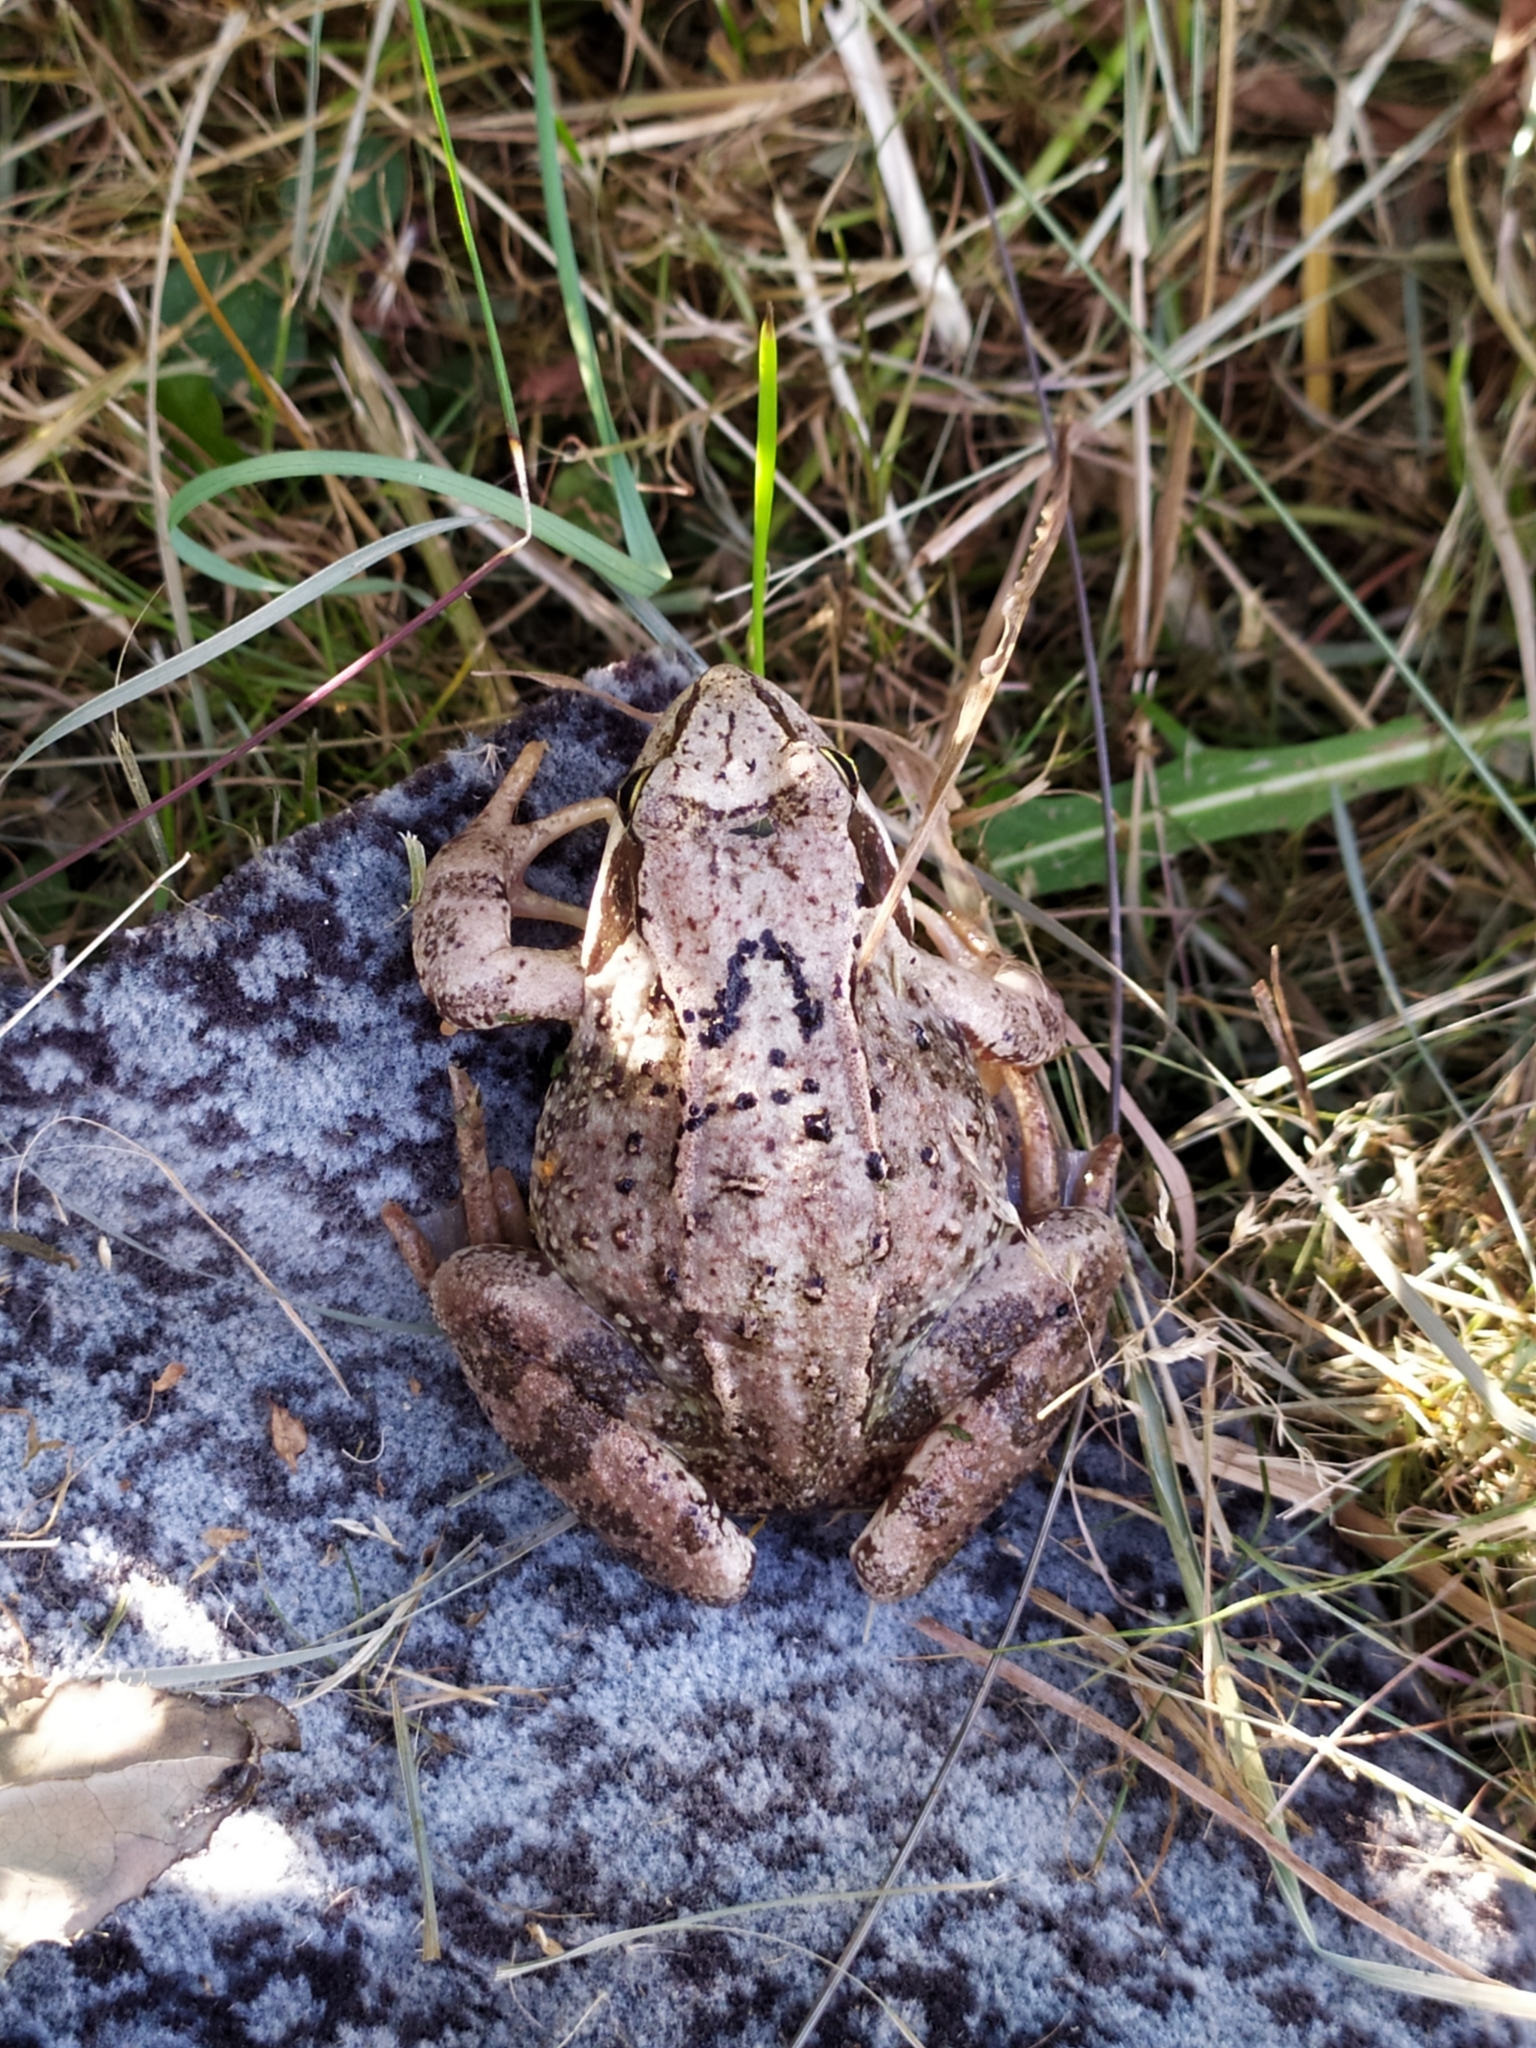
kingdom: Animalia
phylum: Chordata
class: Amphibia
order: Anura
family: Ranidae
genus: Rana
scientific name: Rana temporaria
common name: Common frog
